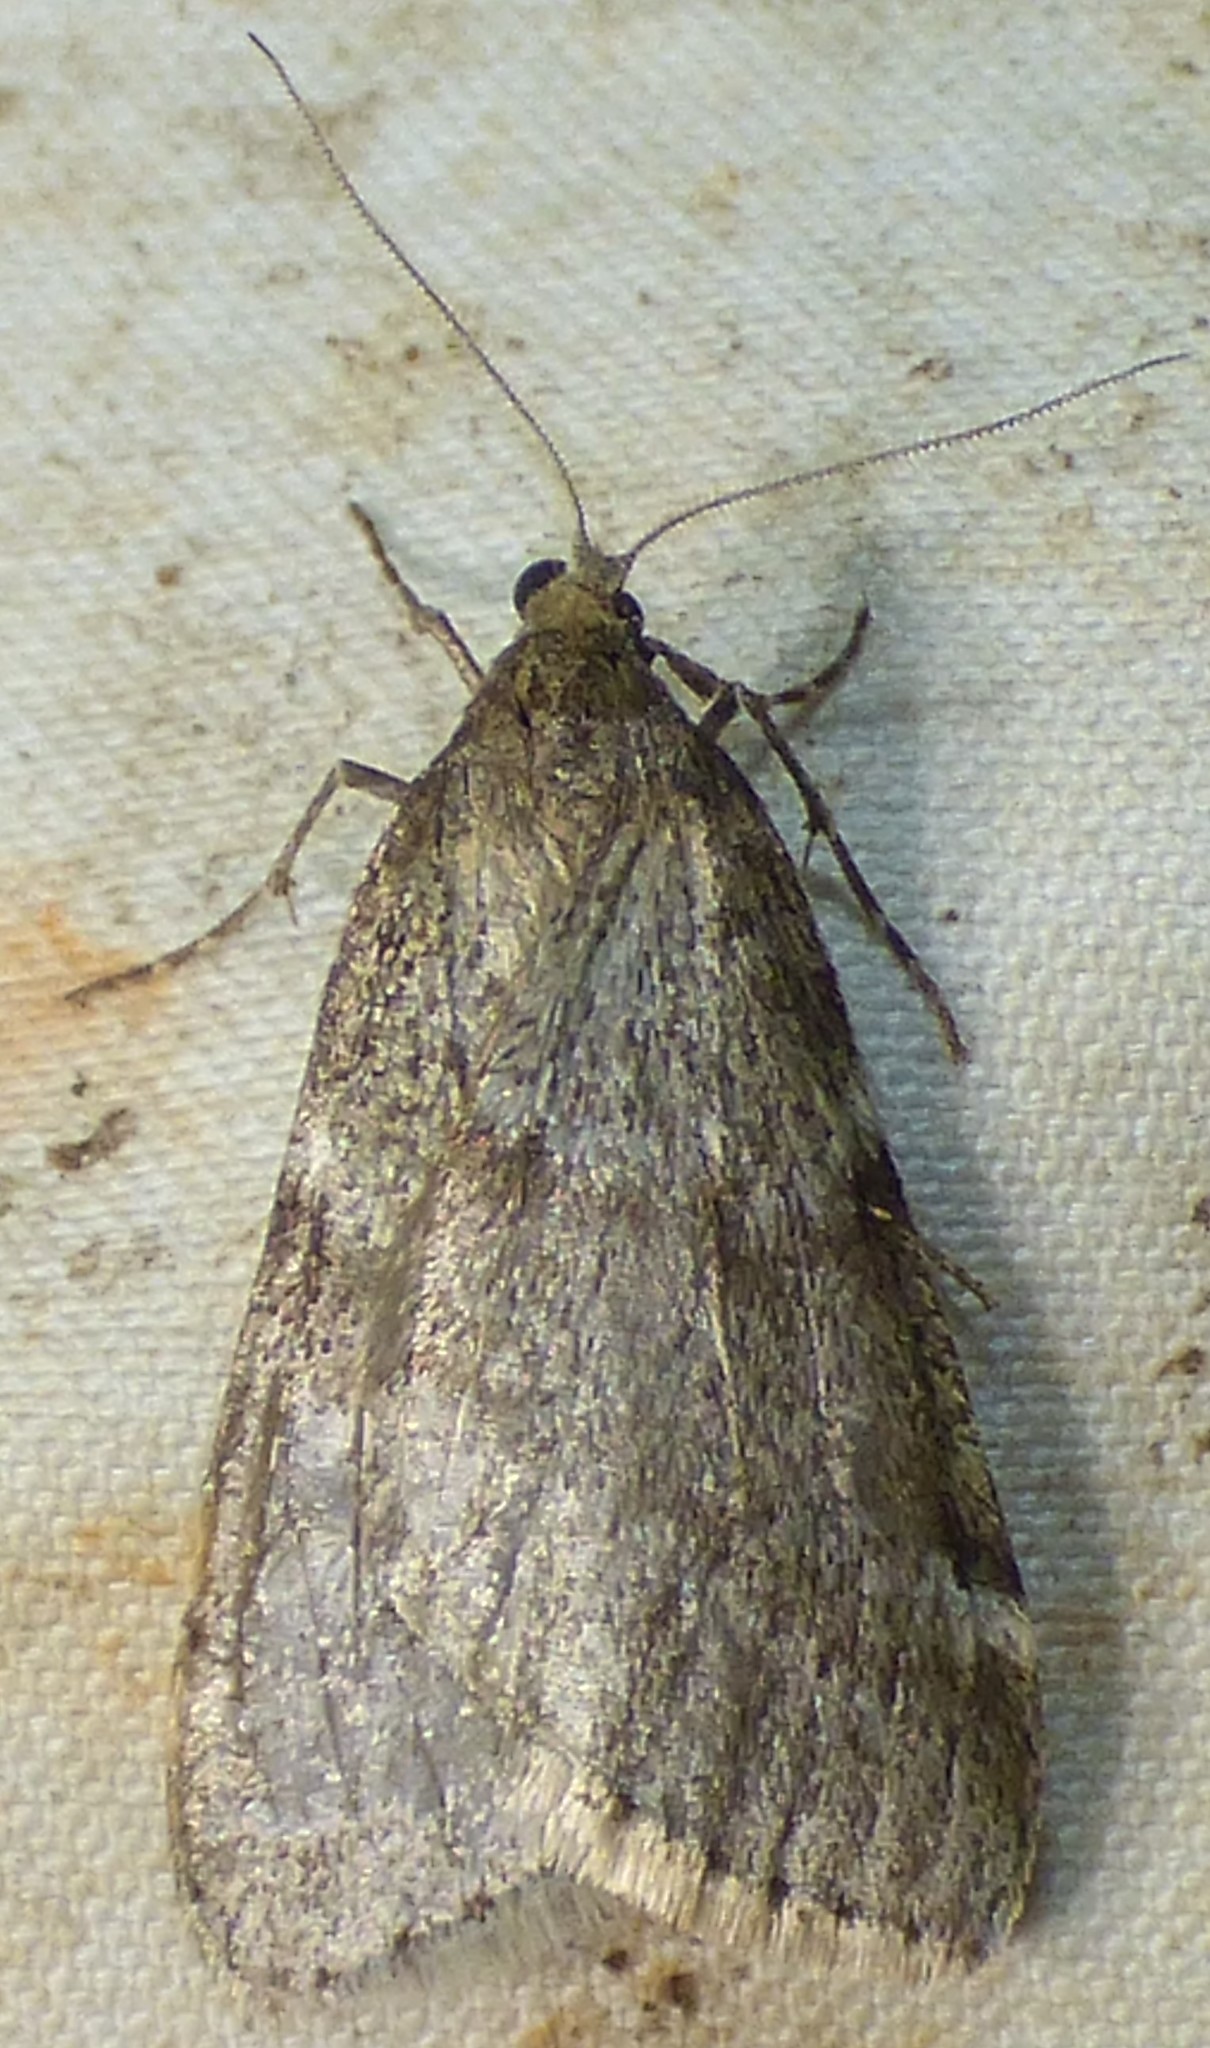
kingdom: Animalia
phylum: Arthropoda
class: Insecta
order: Lepidoptera
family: Geometridae
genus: Alsophila
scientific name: Alsophila pometaria
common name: Fall cankerworm
